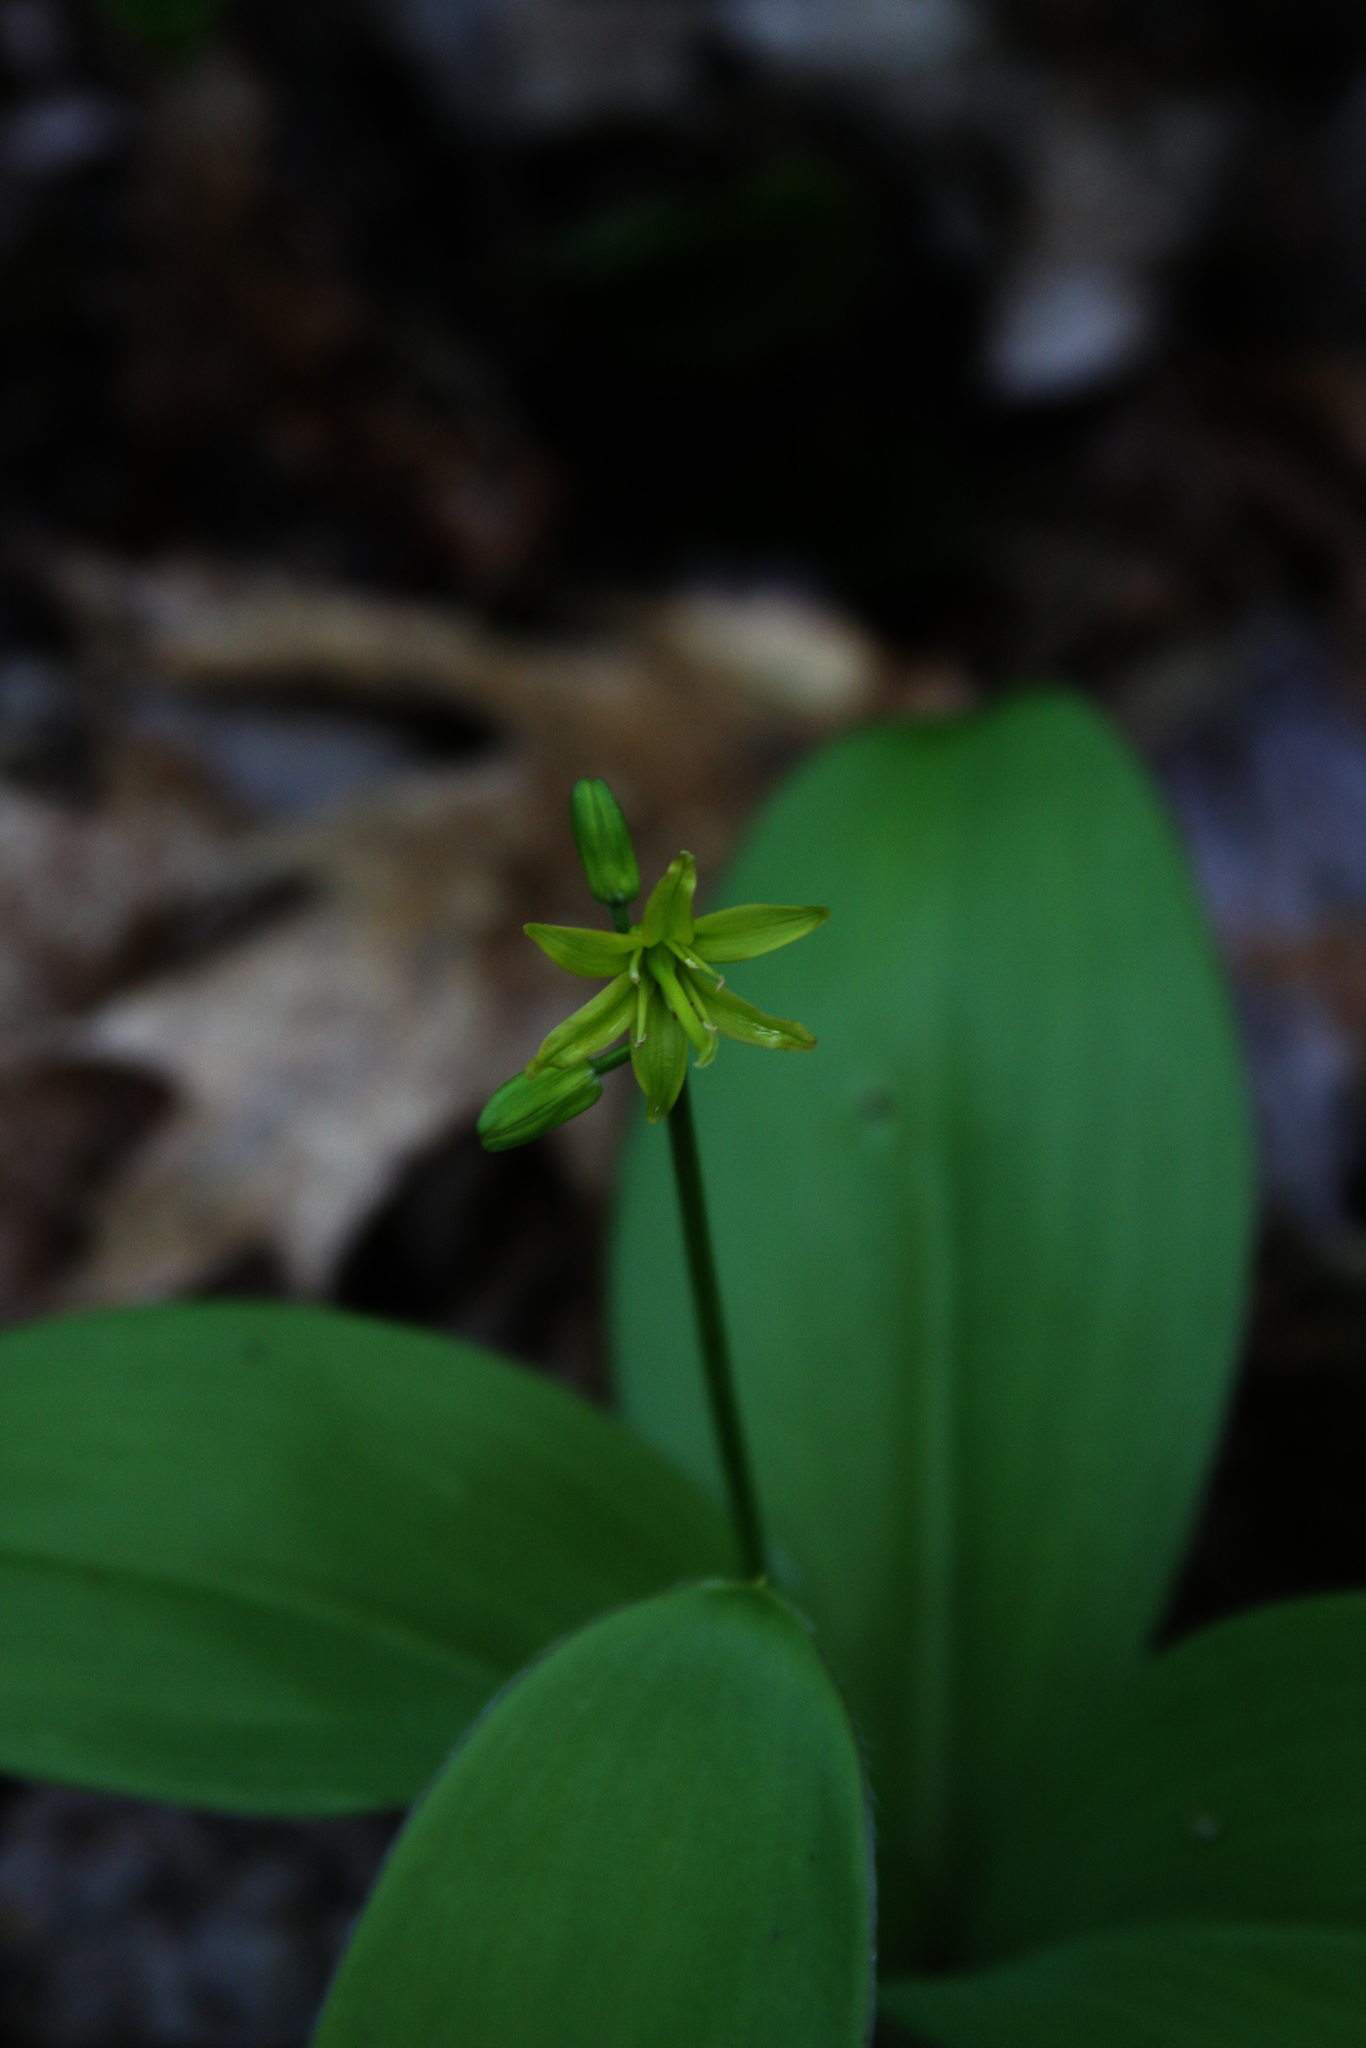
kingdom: Plantae
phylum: Tracheophyta
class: Liliopsida
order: Liliales
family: Liliaceae
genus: Clintonia
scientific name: Clintonia borealis
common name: Yellow clintonia
